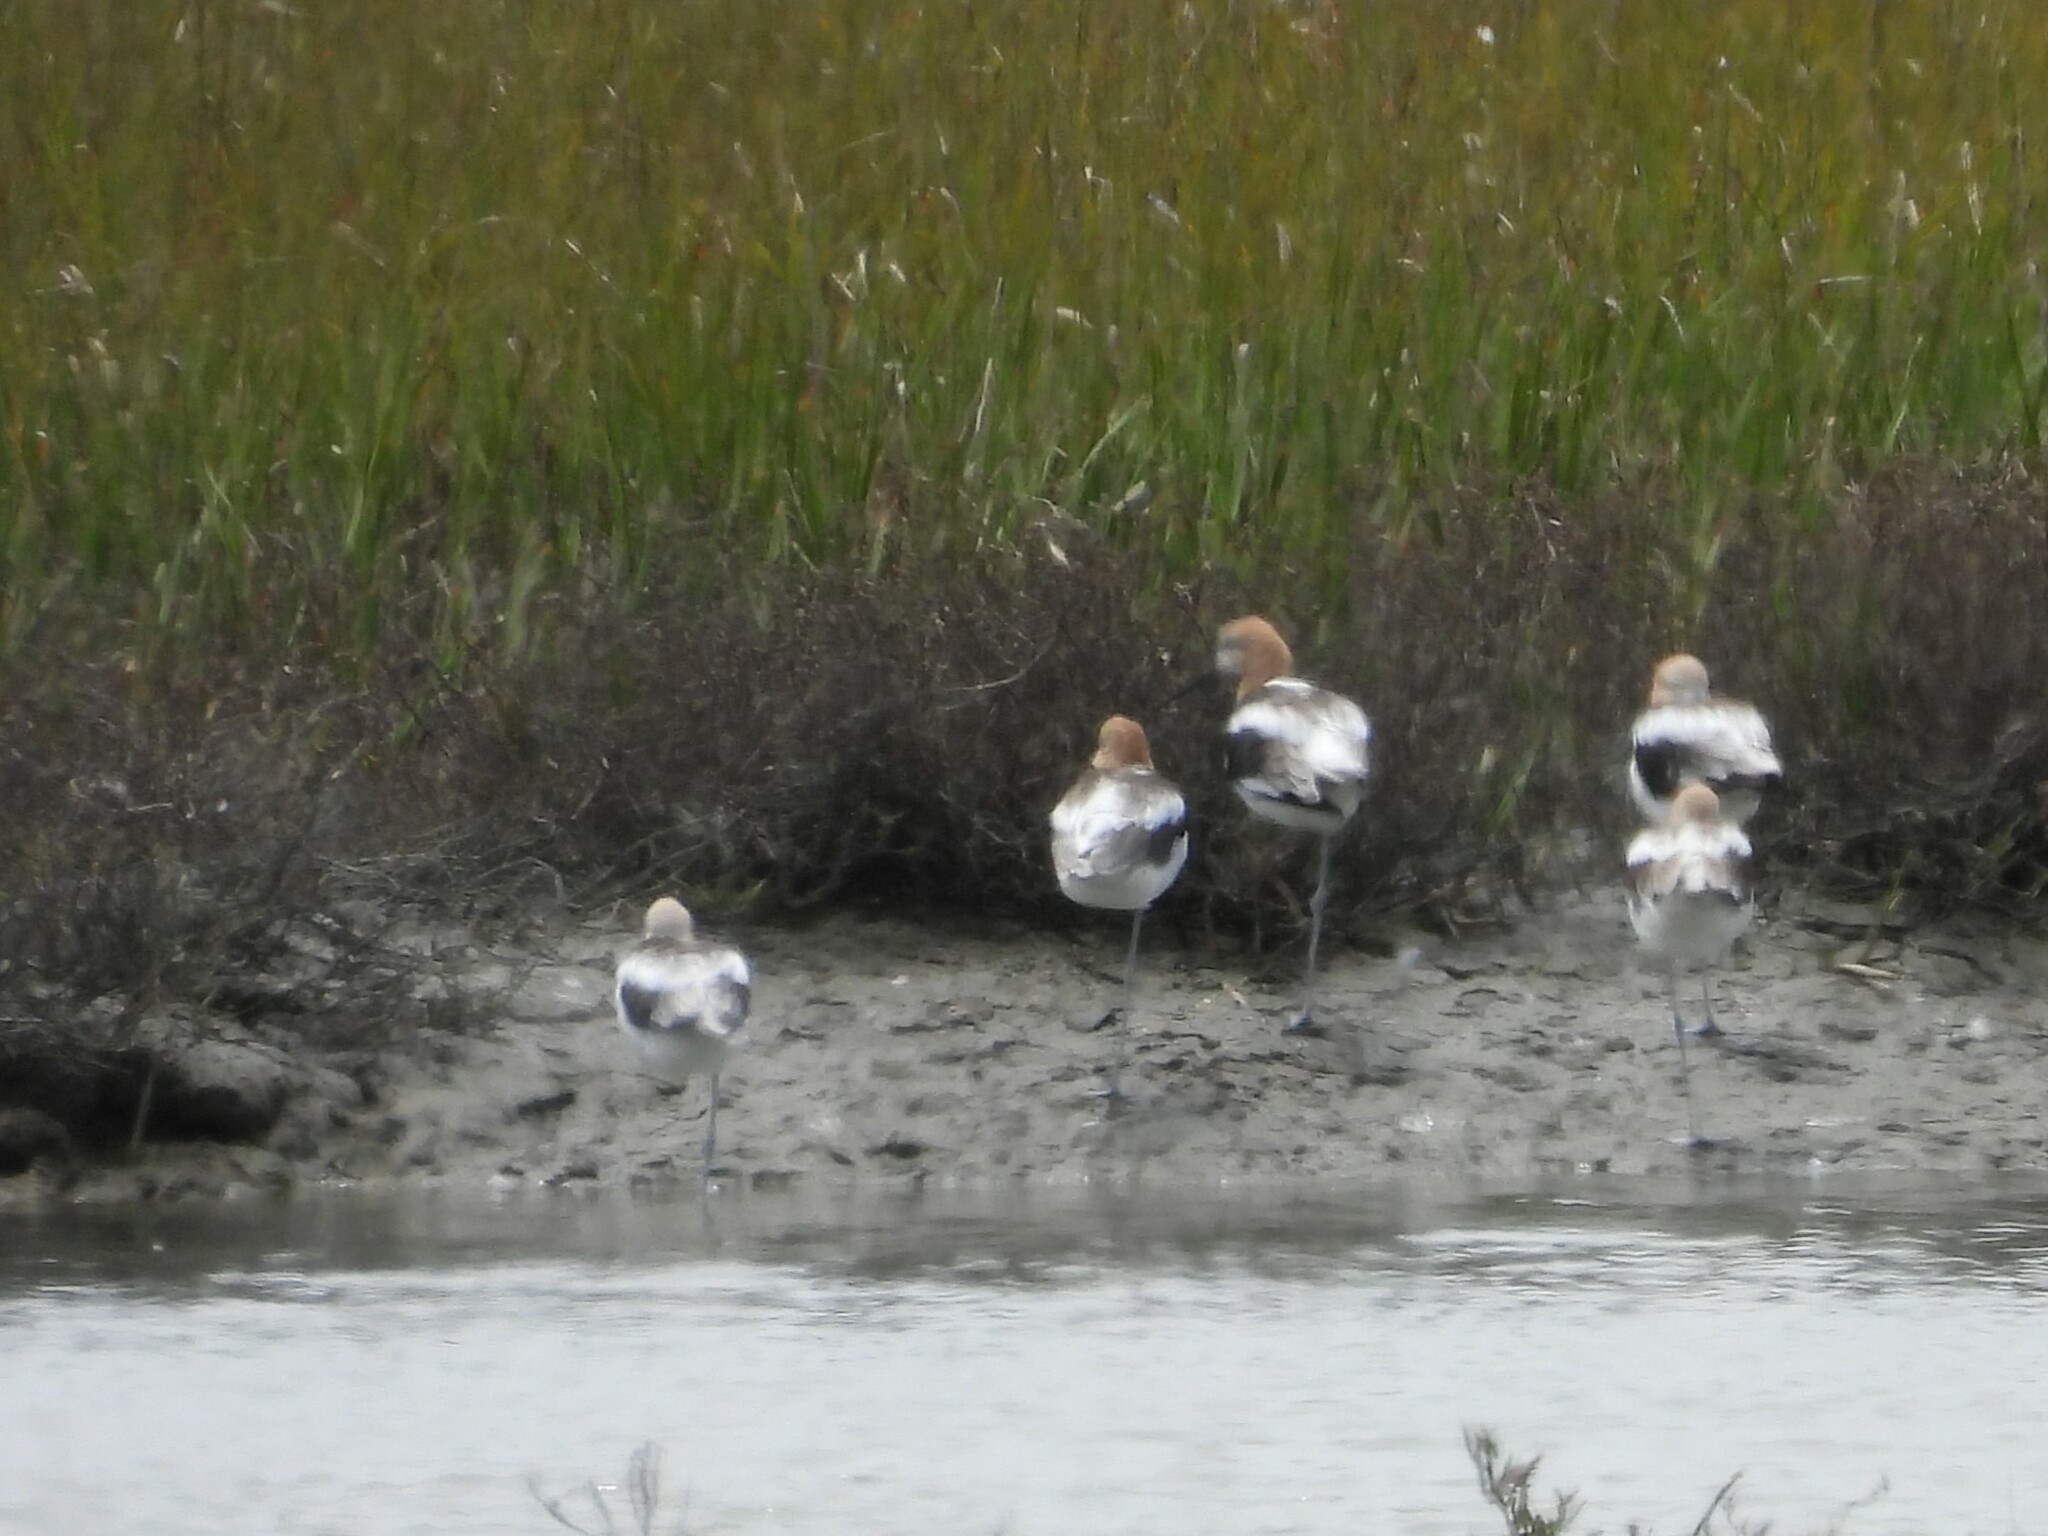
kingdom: Animalia
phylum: Chordata
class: Aves
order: Charadriiformes
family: Recurvirostridae
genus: Recurvirostra
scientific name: Recurvirostra americana
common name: American avocet
